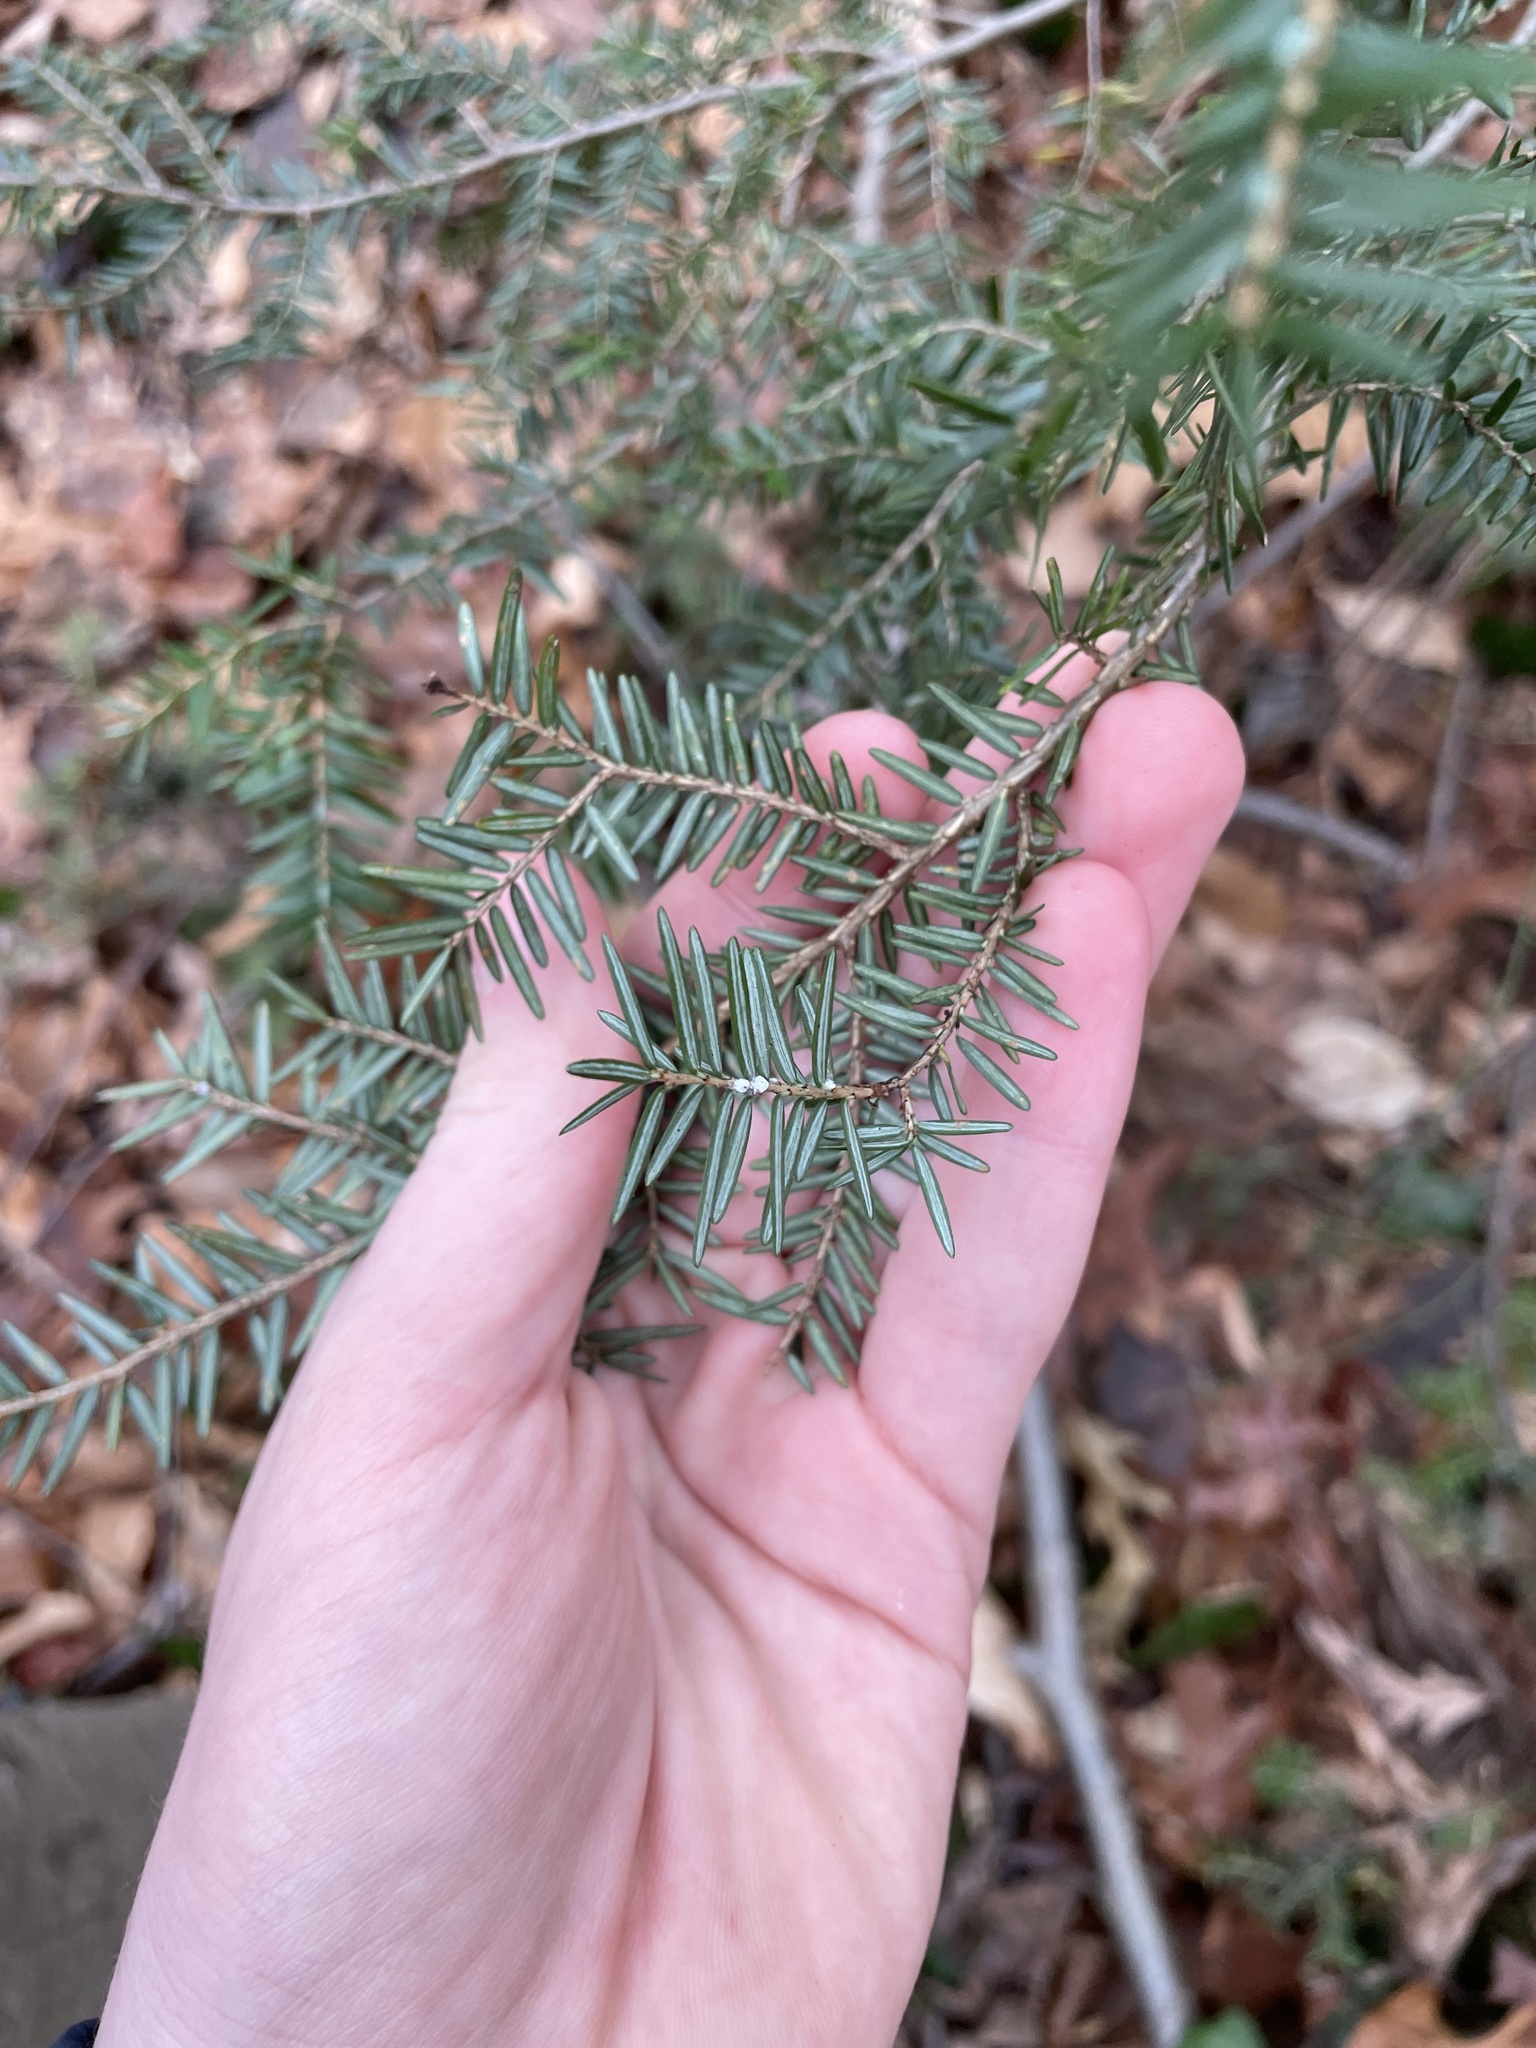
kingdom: Plantae
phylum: Tracheophyta
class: Pinopsida
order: Pinales
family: Pinaceae
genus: Tsuga
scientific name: Tsuga canadensis
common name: Eastern hemlock
